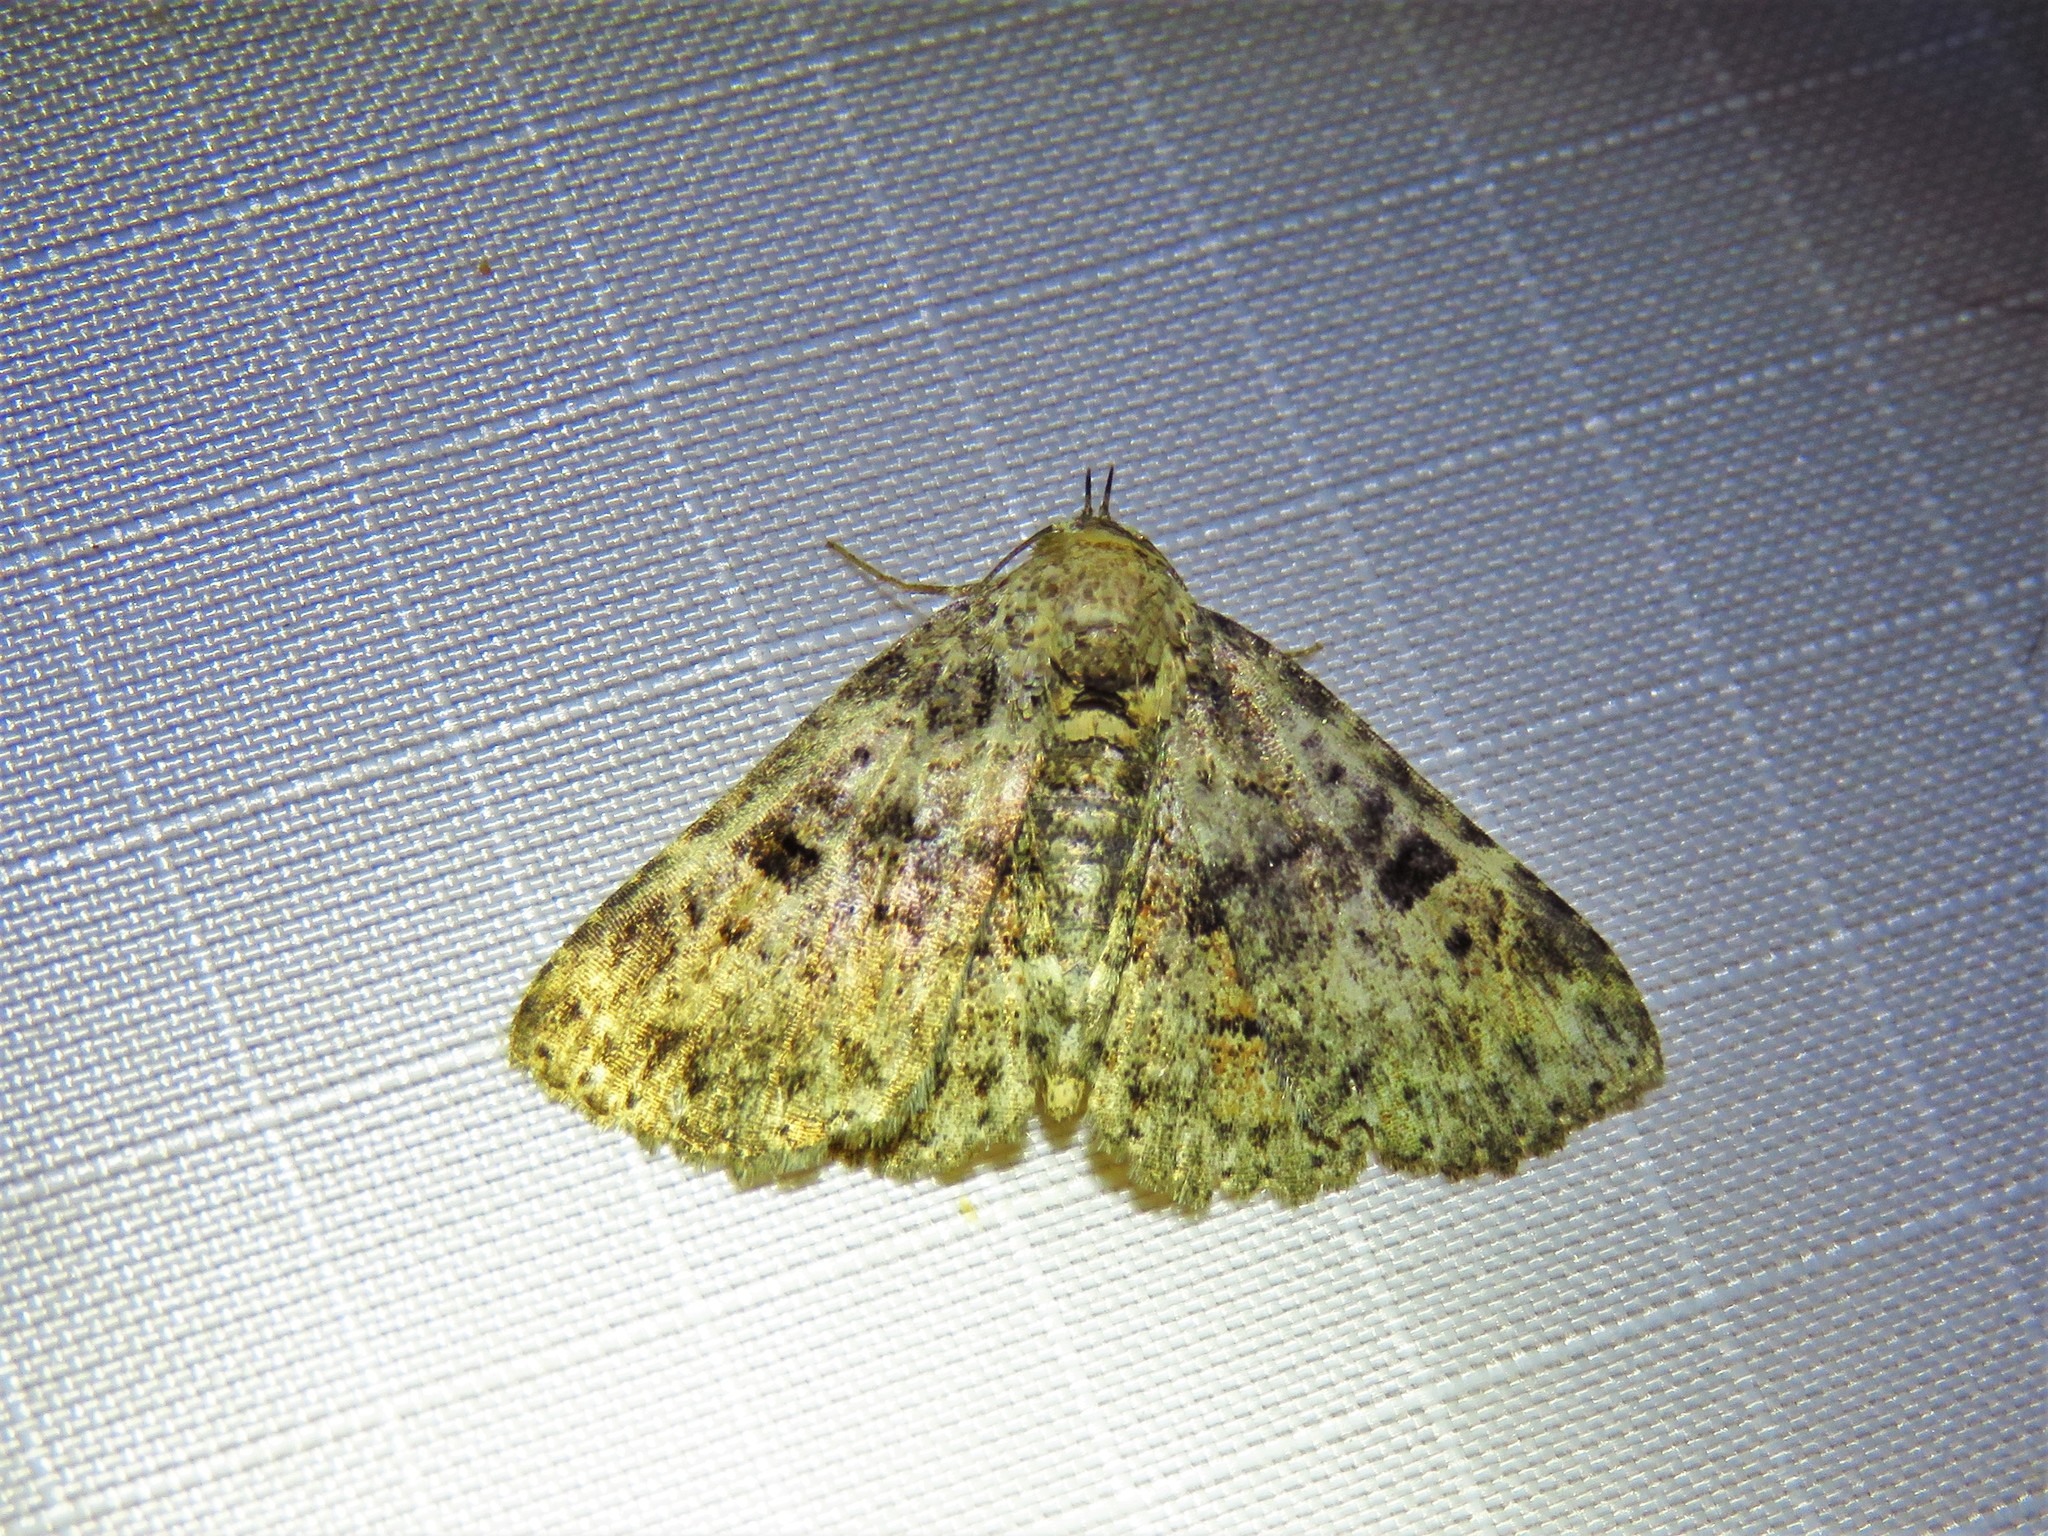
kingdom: Animalia
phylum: Arthropoda
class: Insecta
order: Lepidoptera
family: Erebidae
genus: Metalectra
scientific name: Metalectra discalis
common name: Common fungus moth
